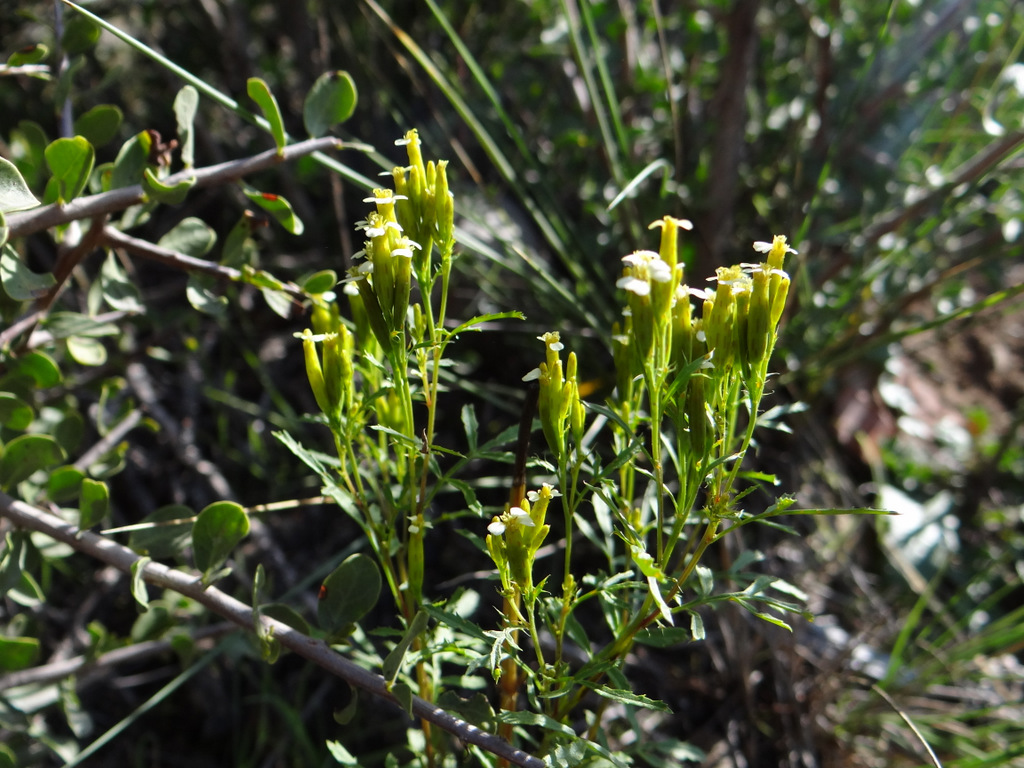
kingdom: Plantae
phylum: Tracheophyta
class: Magnoliopsida
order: Asterales
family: Asteraceae
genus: Tagetes
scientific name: Tagetes minuta
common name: Muster john henry
